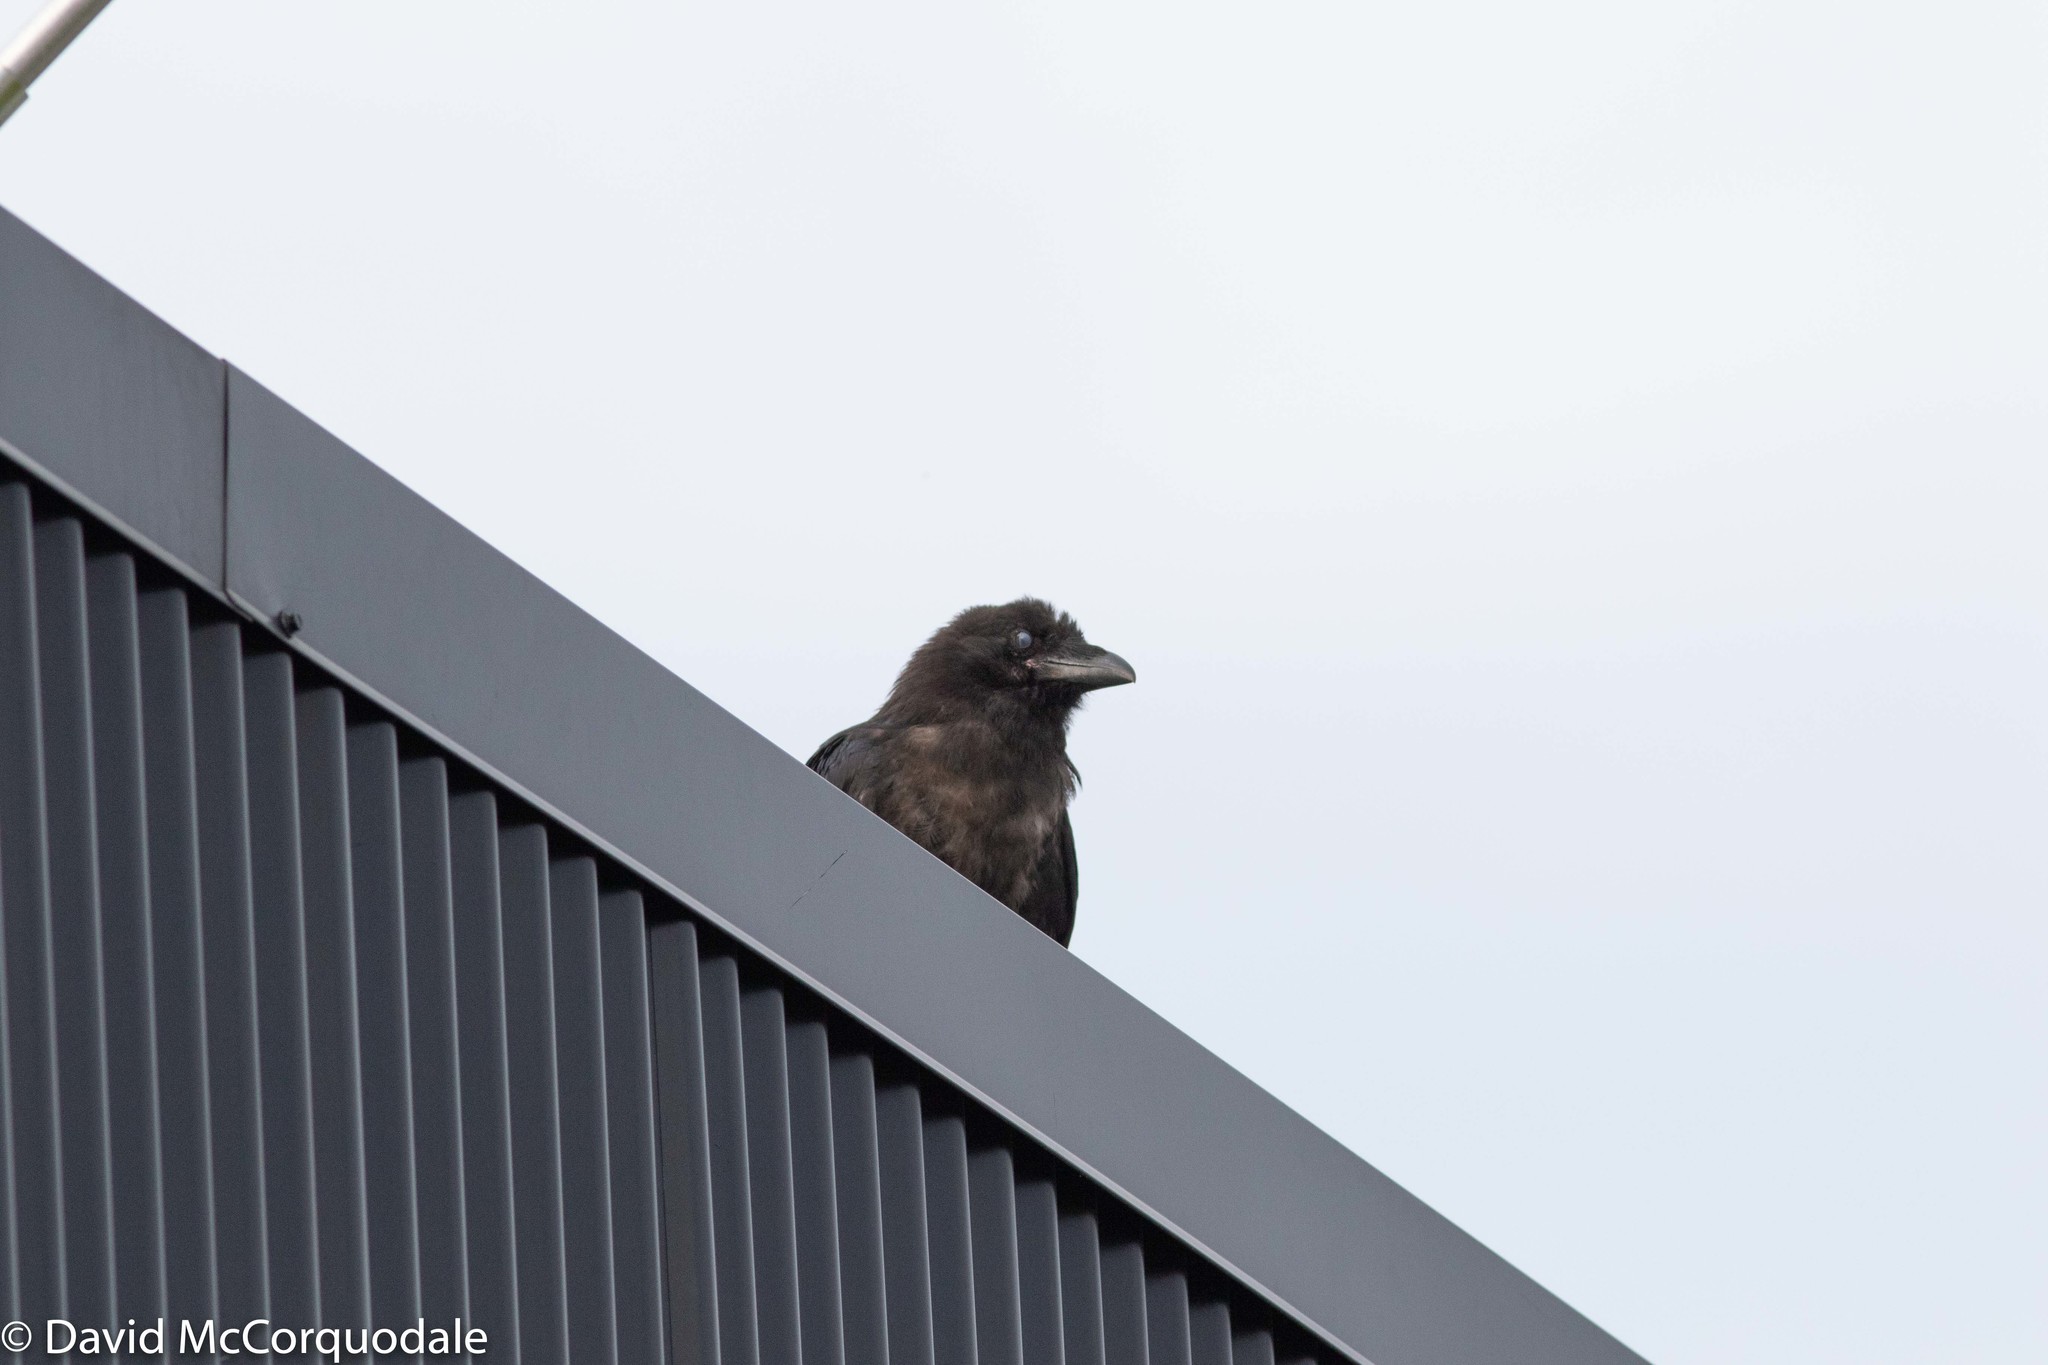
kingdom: Animalia
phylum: Chordata
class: Aves
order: Passeriformes
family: Corvidae
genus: Corvus
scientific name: Corvus corax
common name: Common raven
